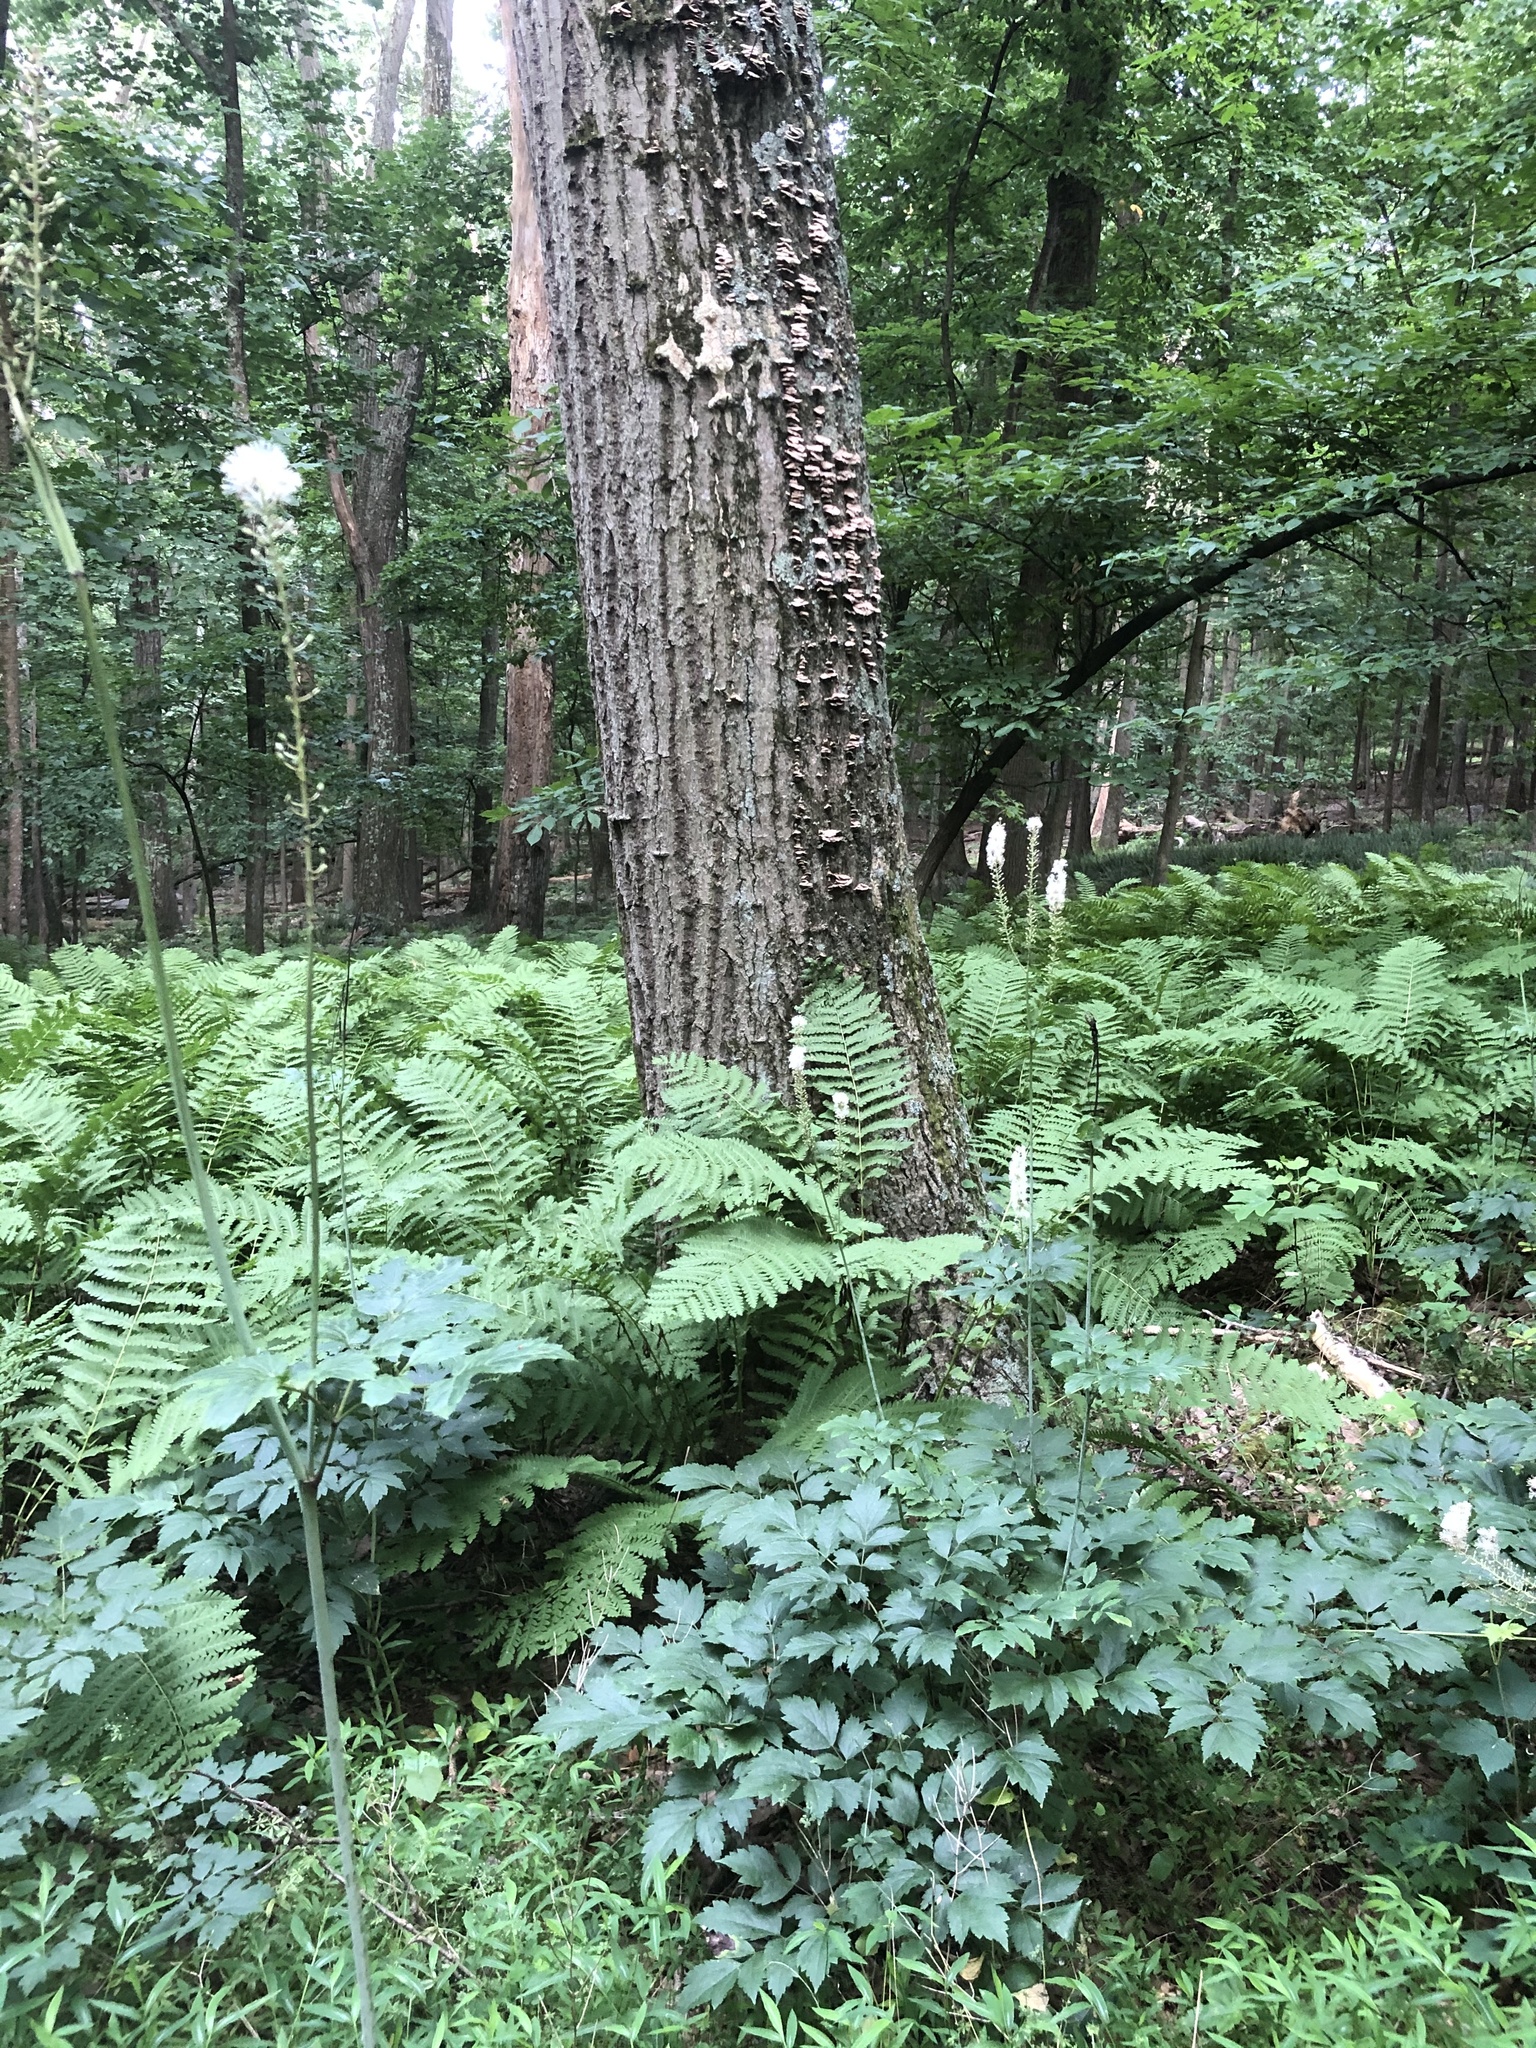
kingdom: Plantae
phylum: Tracheophyta
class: Magnoliopsida
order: Ranunculales
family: Ranunculaceae
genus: Actaea
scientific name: Actaea racemosa
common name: Black cohosh
